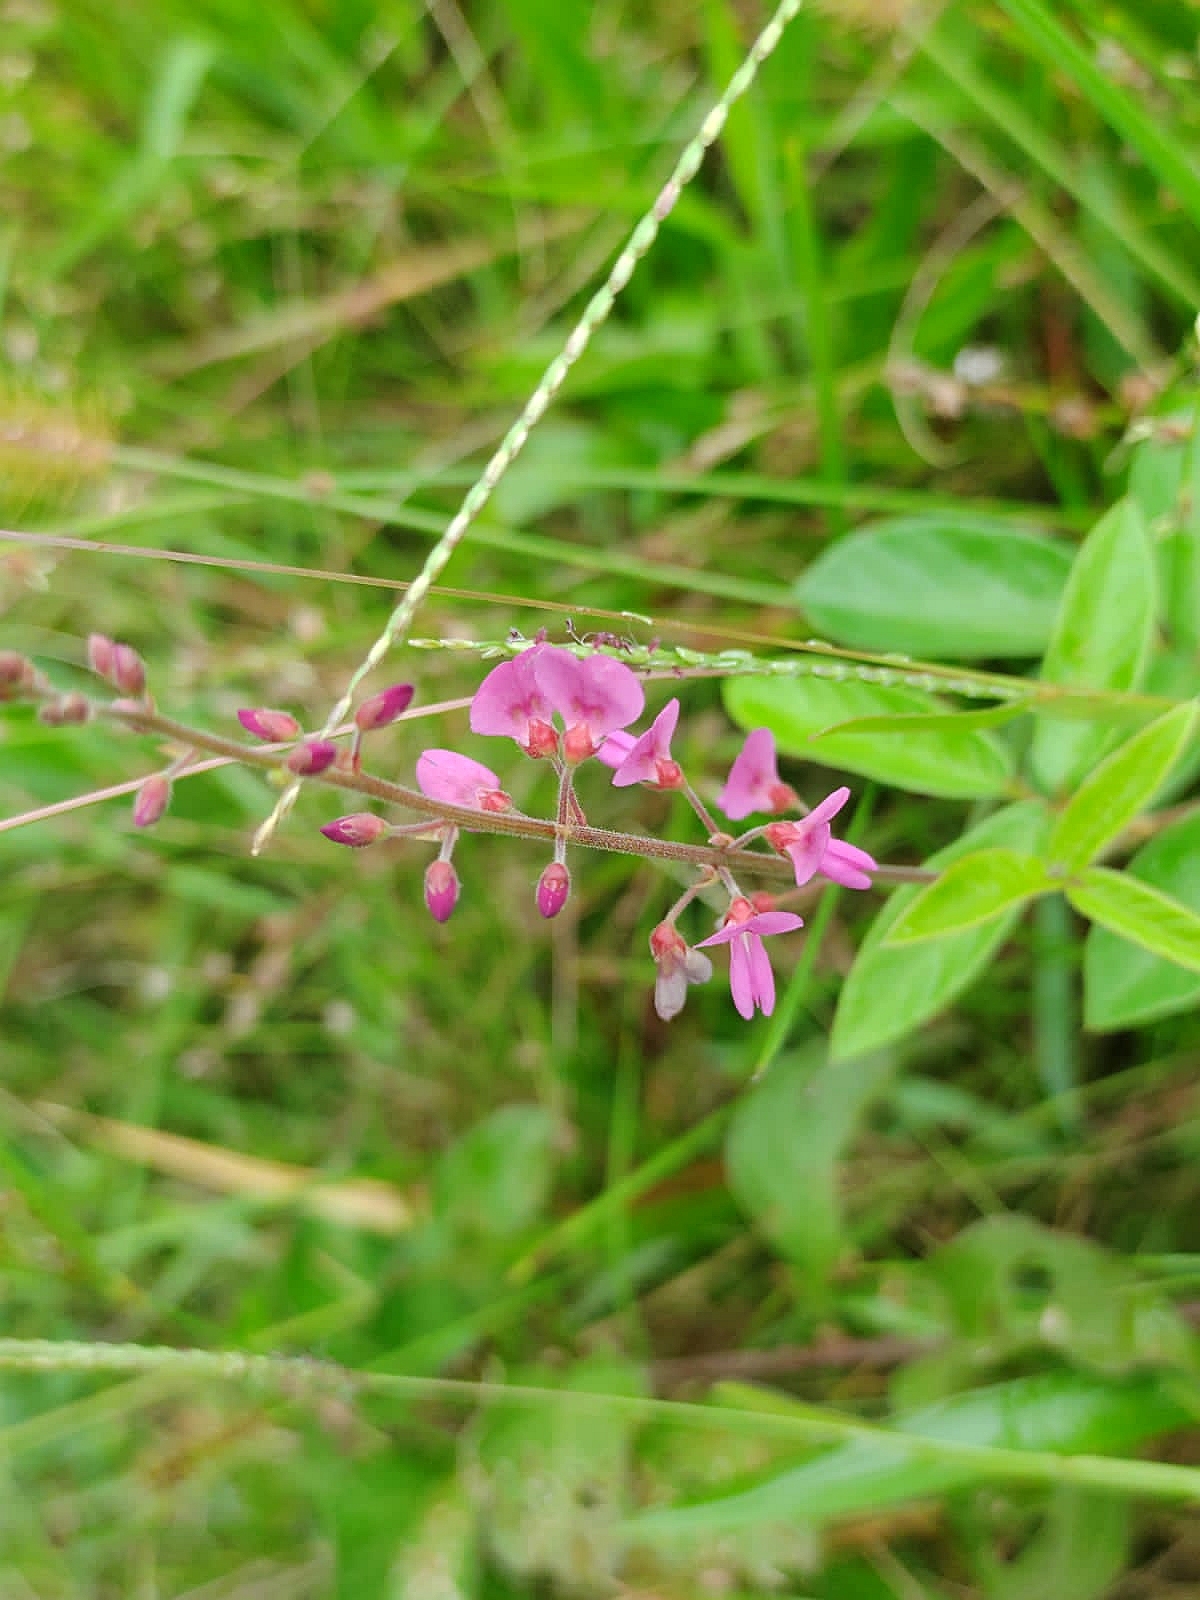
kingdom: Plantae
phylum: Tracheophyta
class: Magnoliopsida
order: Fabales
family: Fabaceae
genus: Desmodium
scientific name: Desmodium incanum
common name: Tickclover
